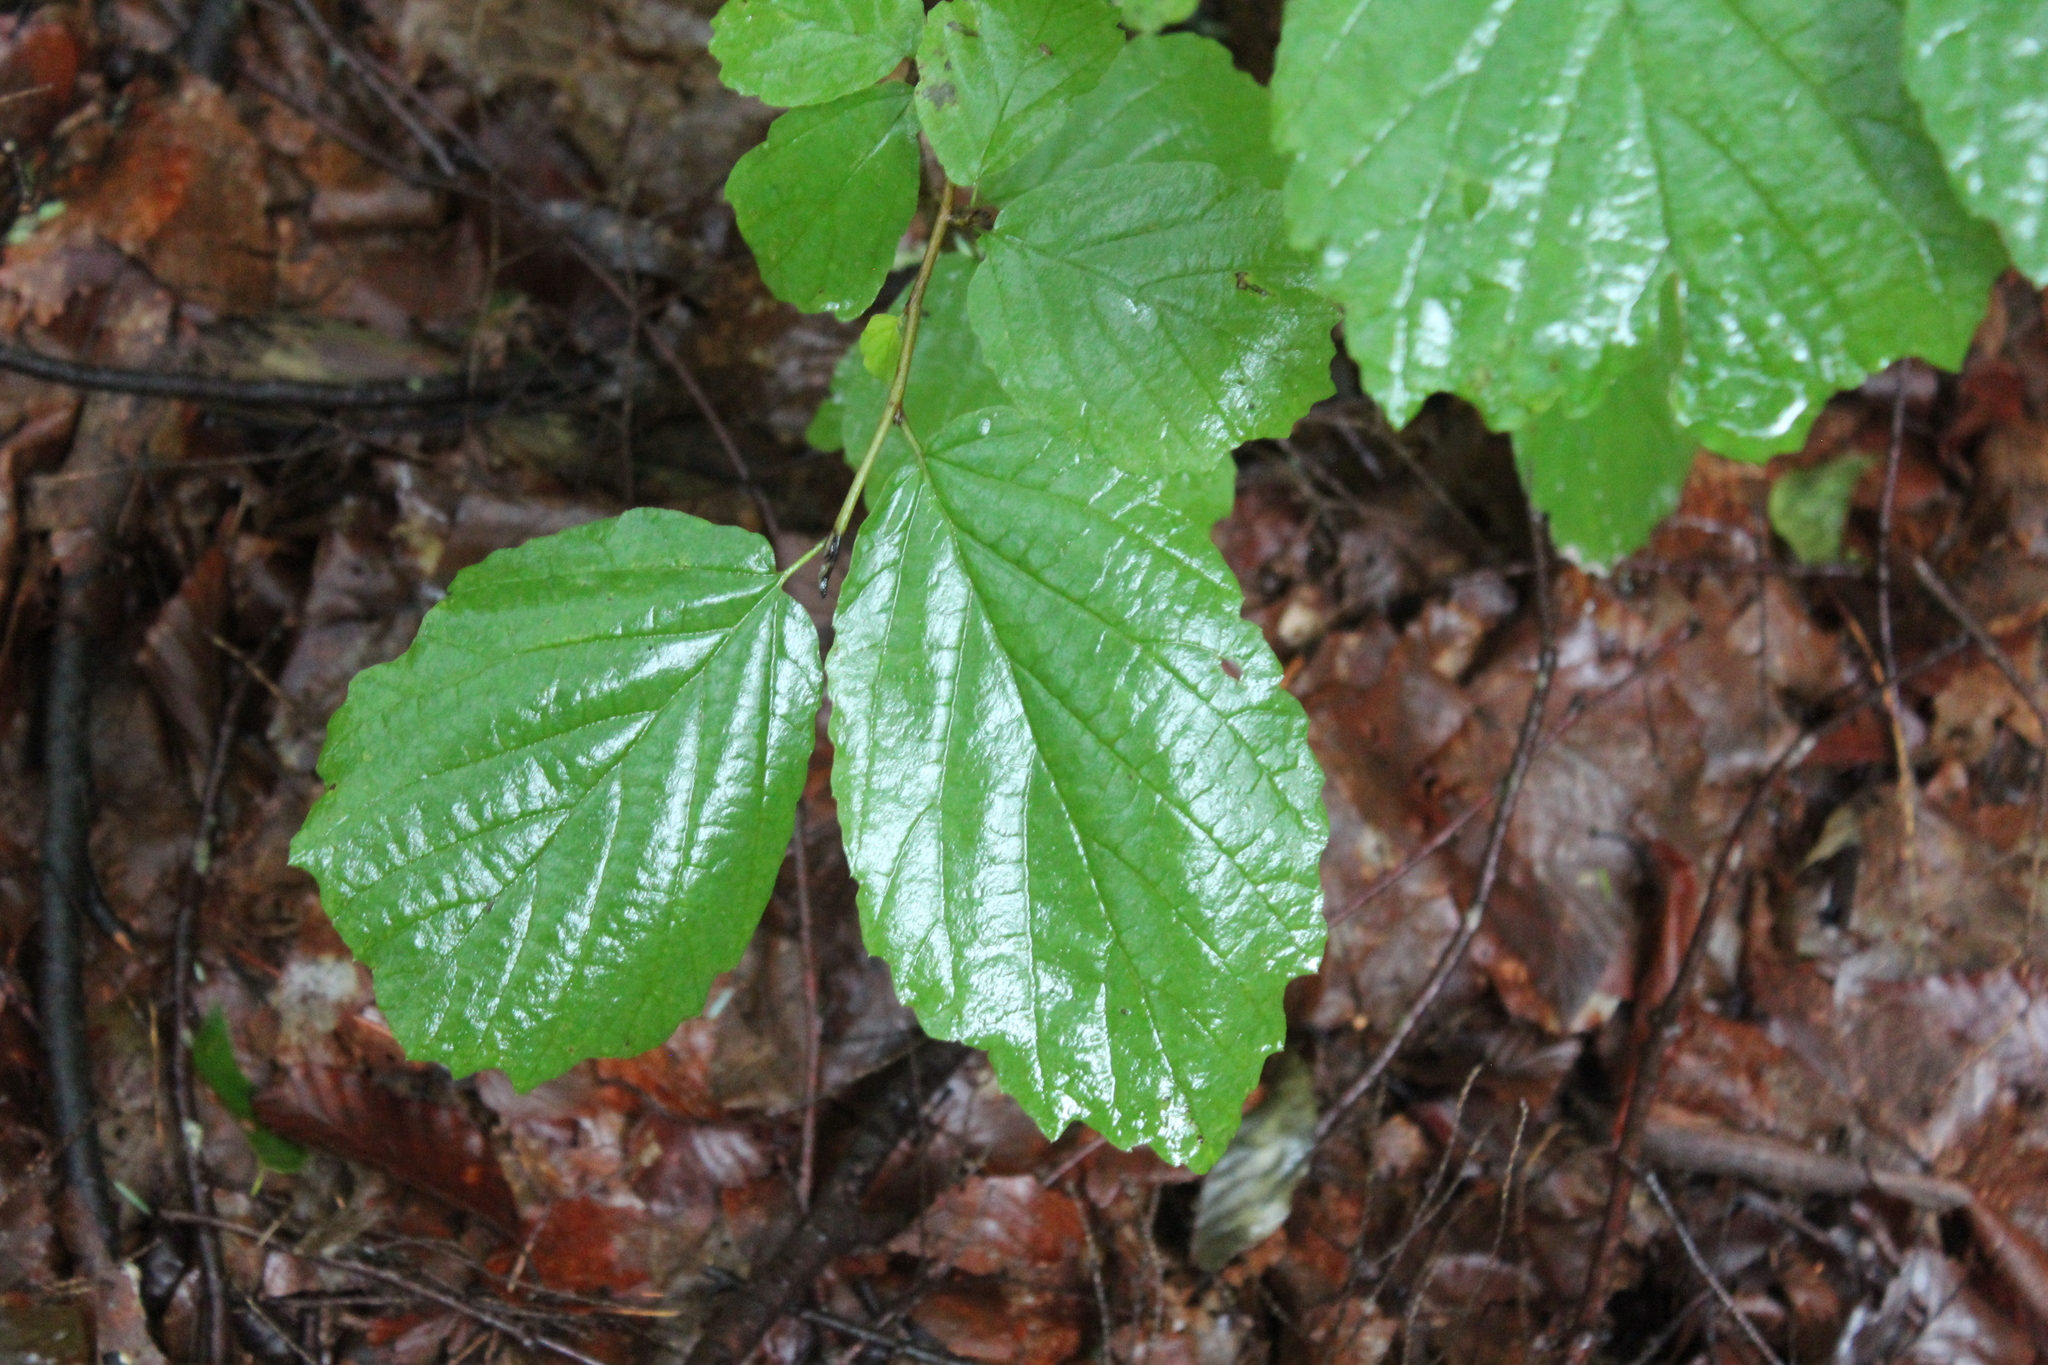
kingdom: Plantae
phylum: Tracheophyta
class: Magnoliopsida
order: Saxifragales
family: Hamamelidaceae
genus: Hamamelis
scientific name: Hamamelis virginiana
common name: Witch-hazel
